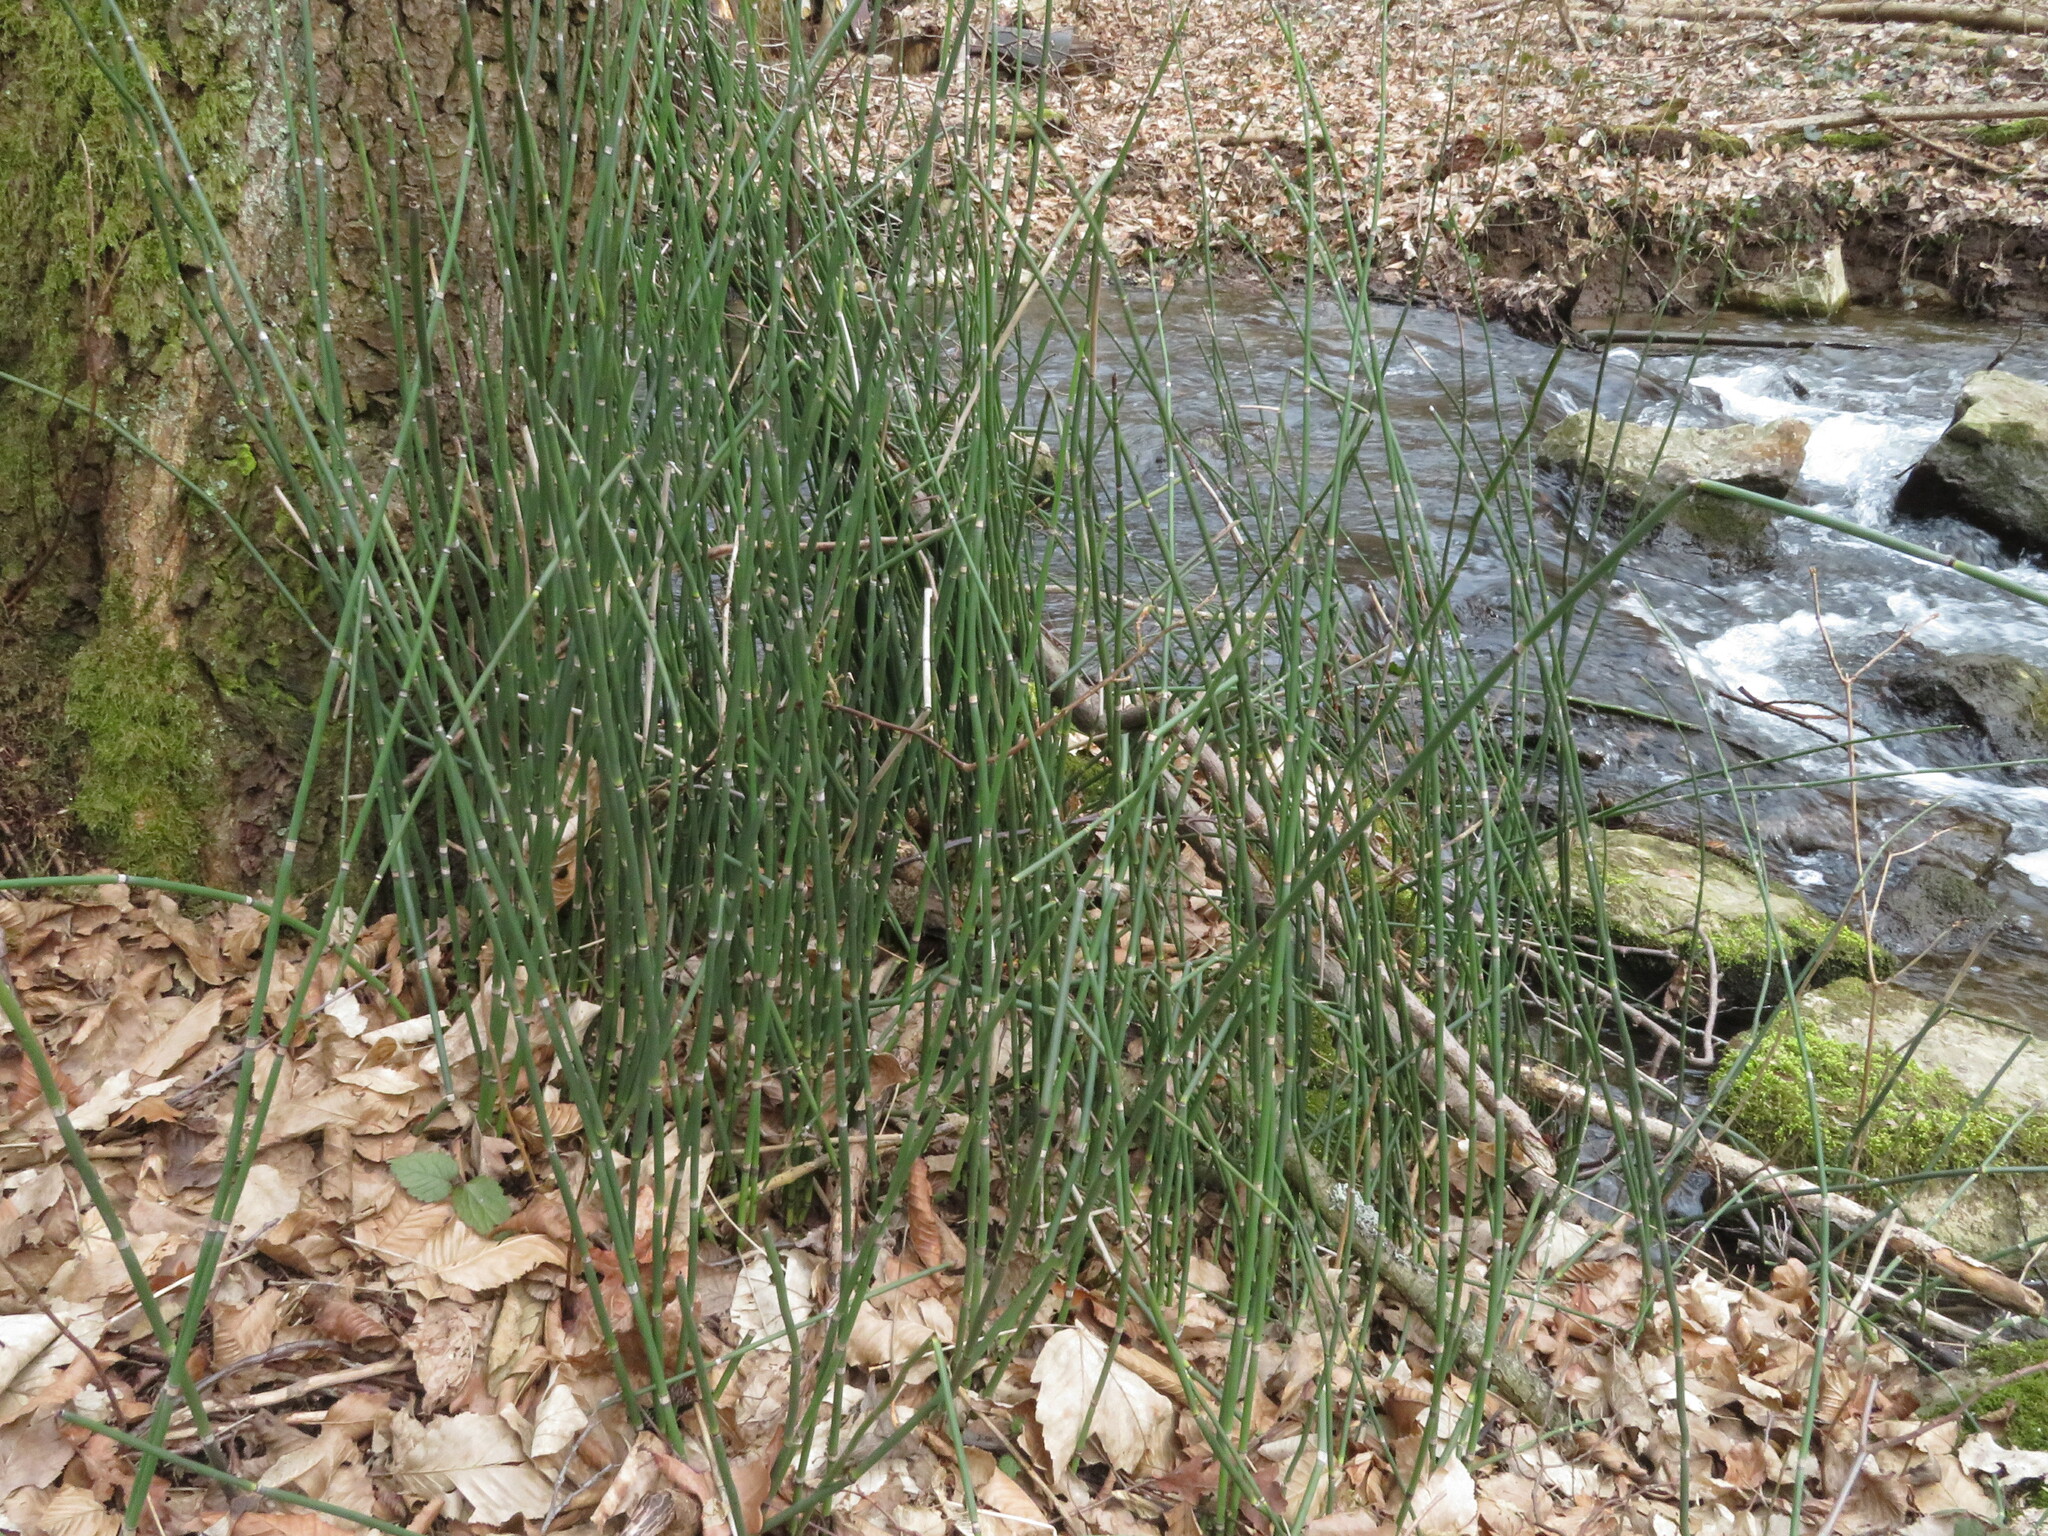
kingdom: Plantae
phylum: Tracheophyta
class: Polypodiopsida
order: Equisetales
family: Equisetaceae
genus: Equisetum
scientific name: Equisetum hyemale
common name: Rough horsetail
